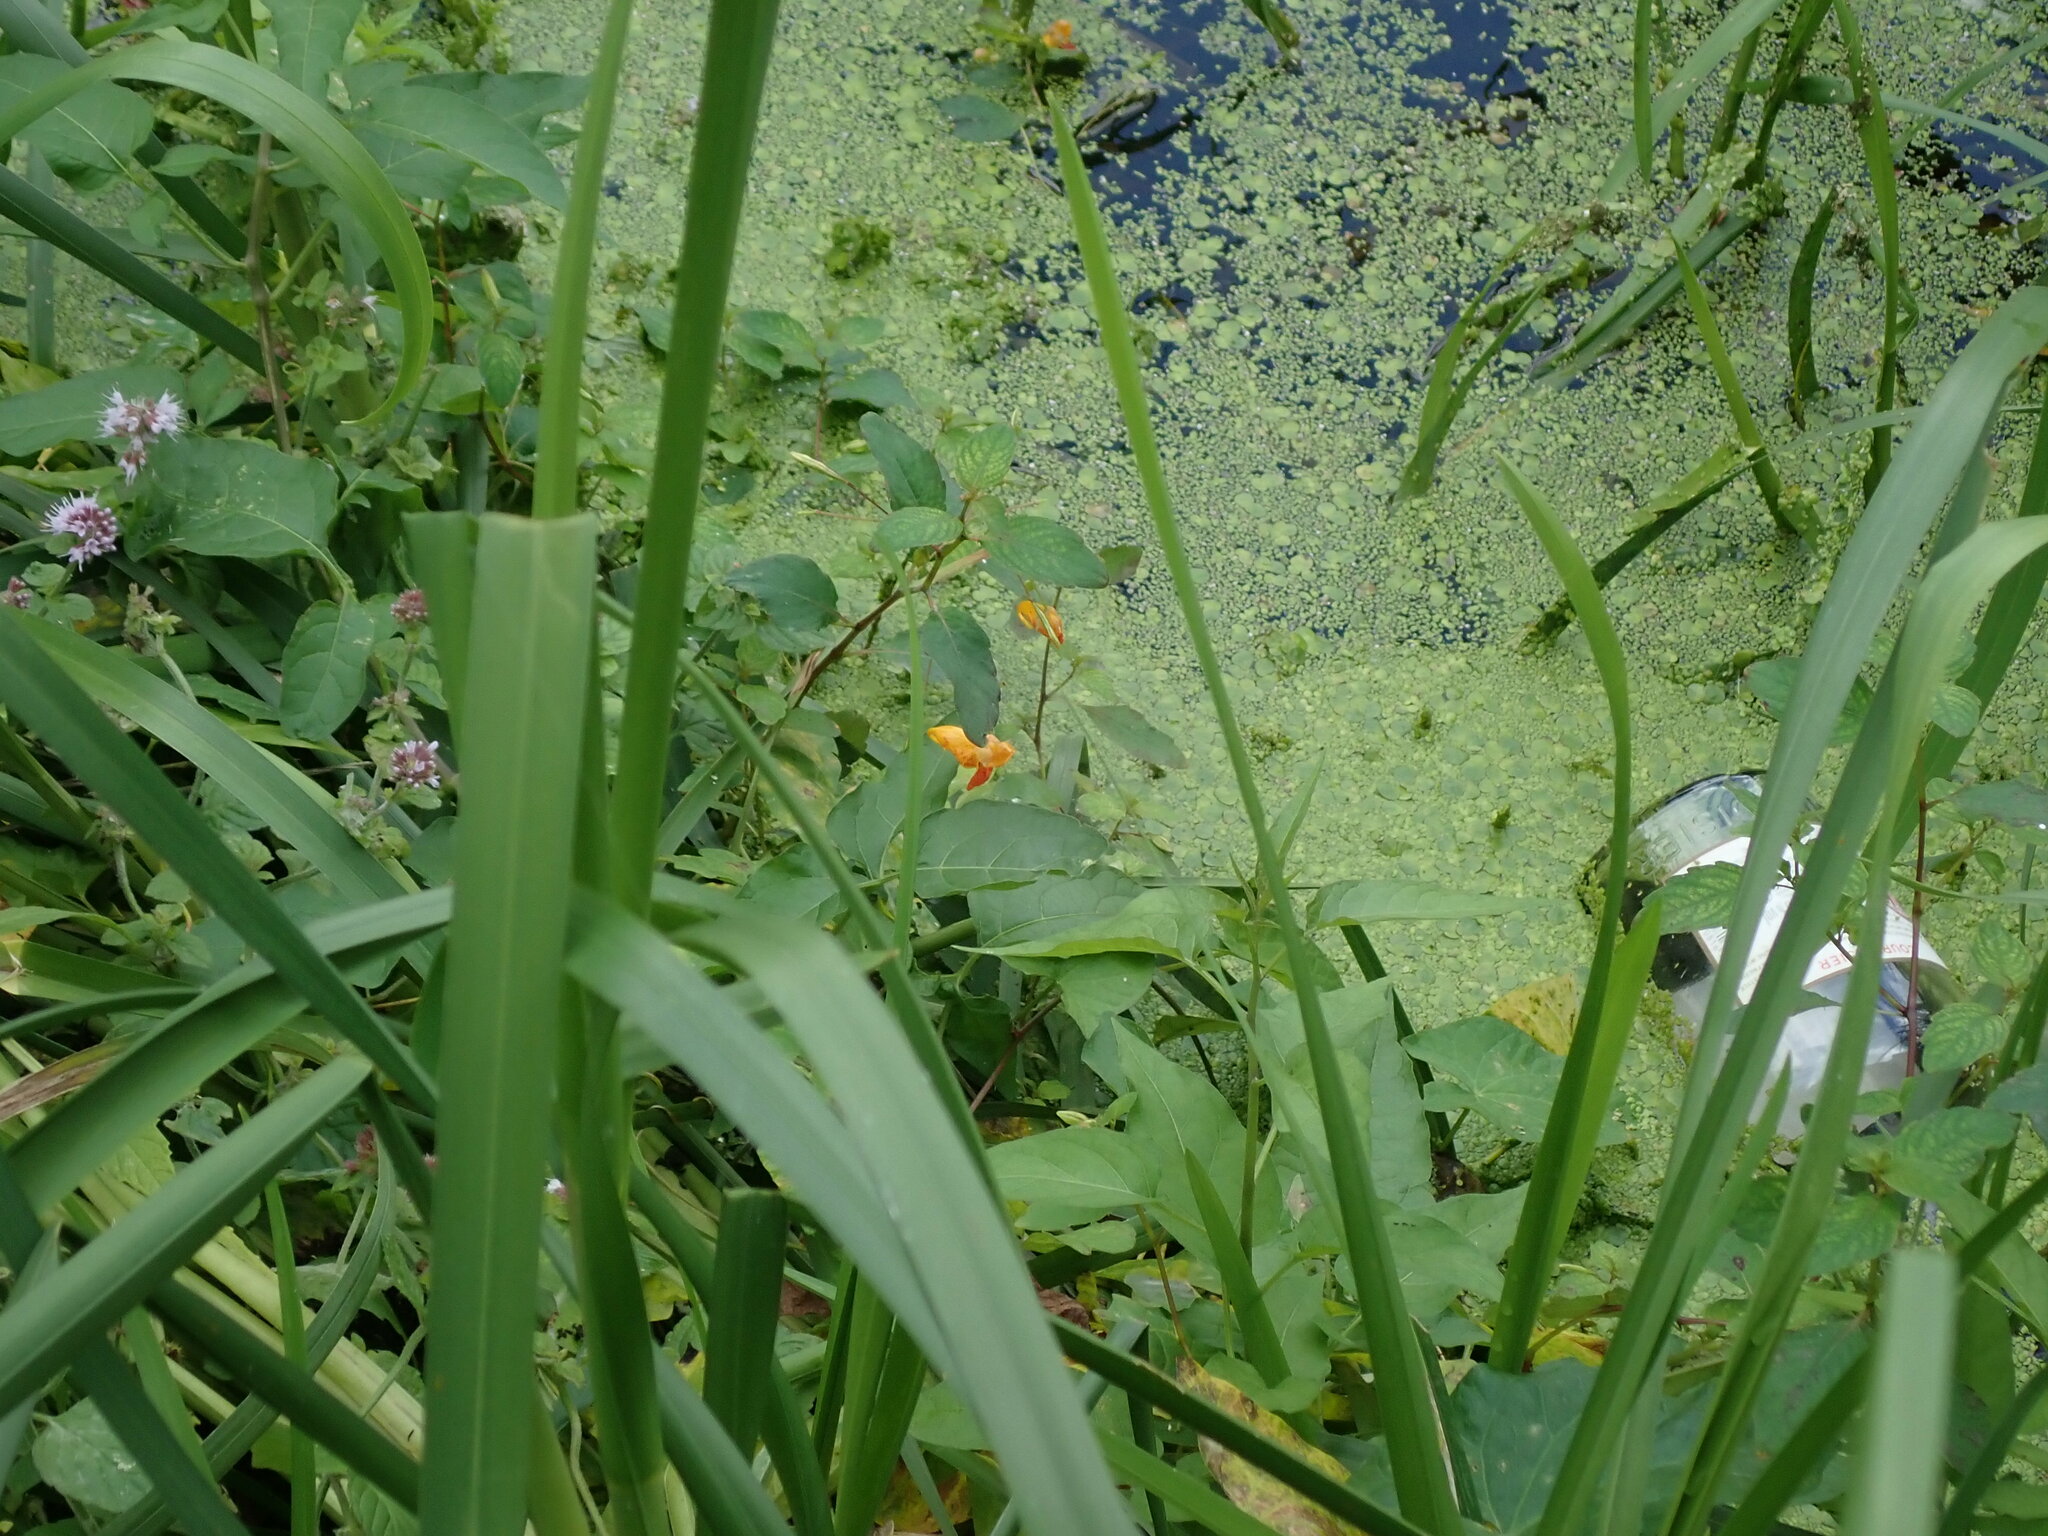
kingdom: Plantae
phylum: Tracheophyta
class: Magnoliopsida
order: Ericales
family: Balsaminaceae
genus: Impatiens
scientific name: Impatiens capensis
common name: Orange balsam
